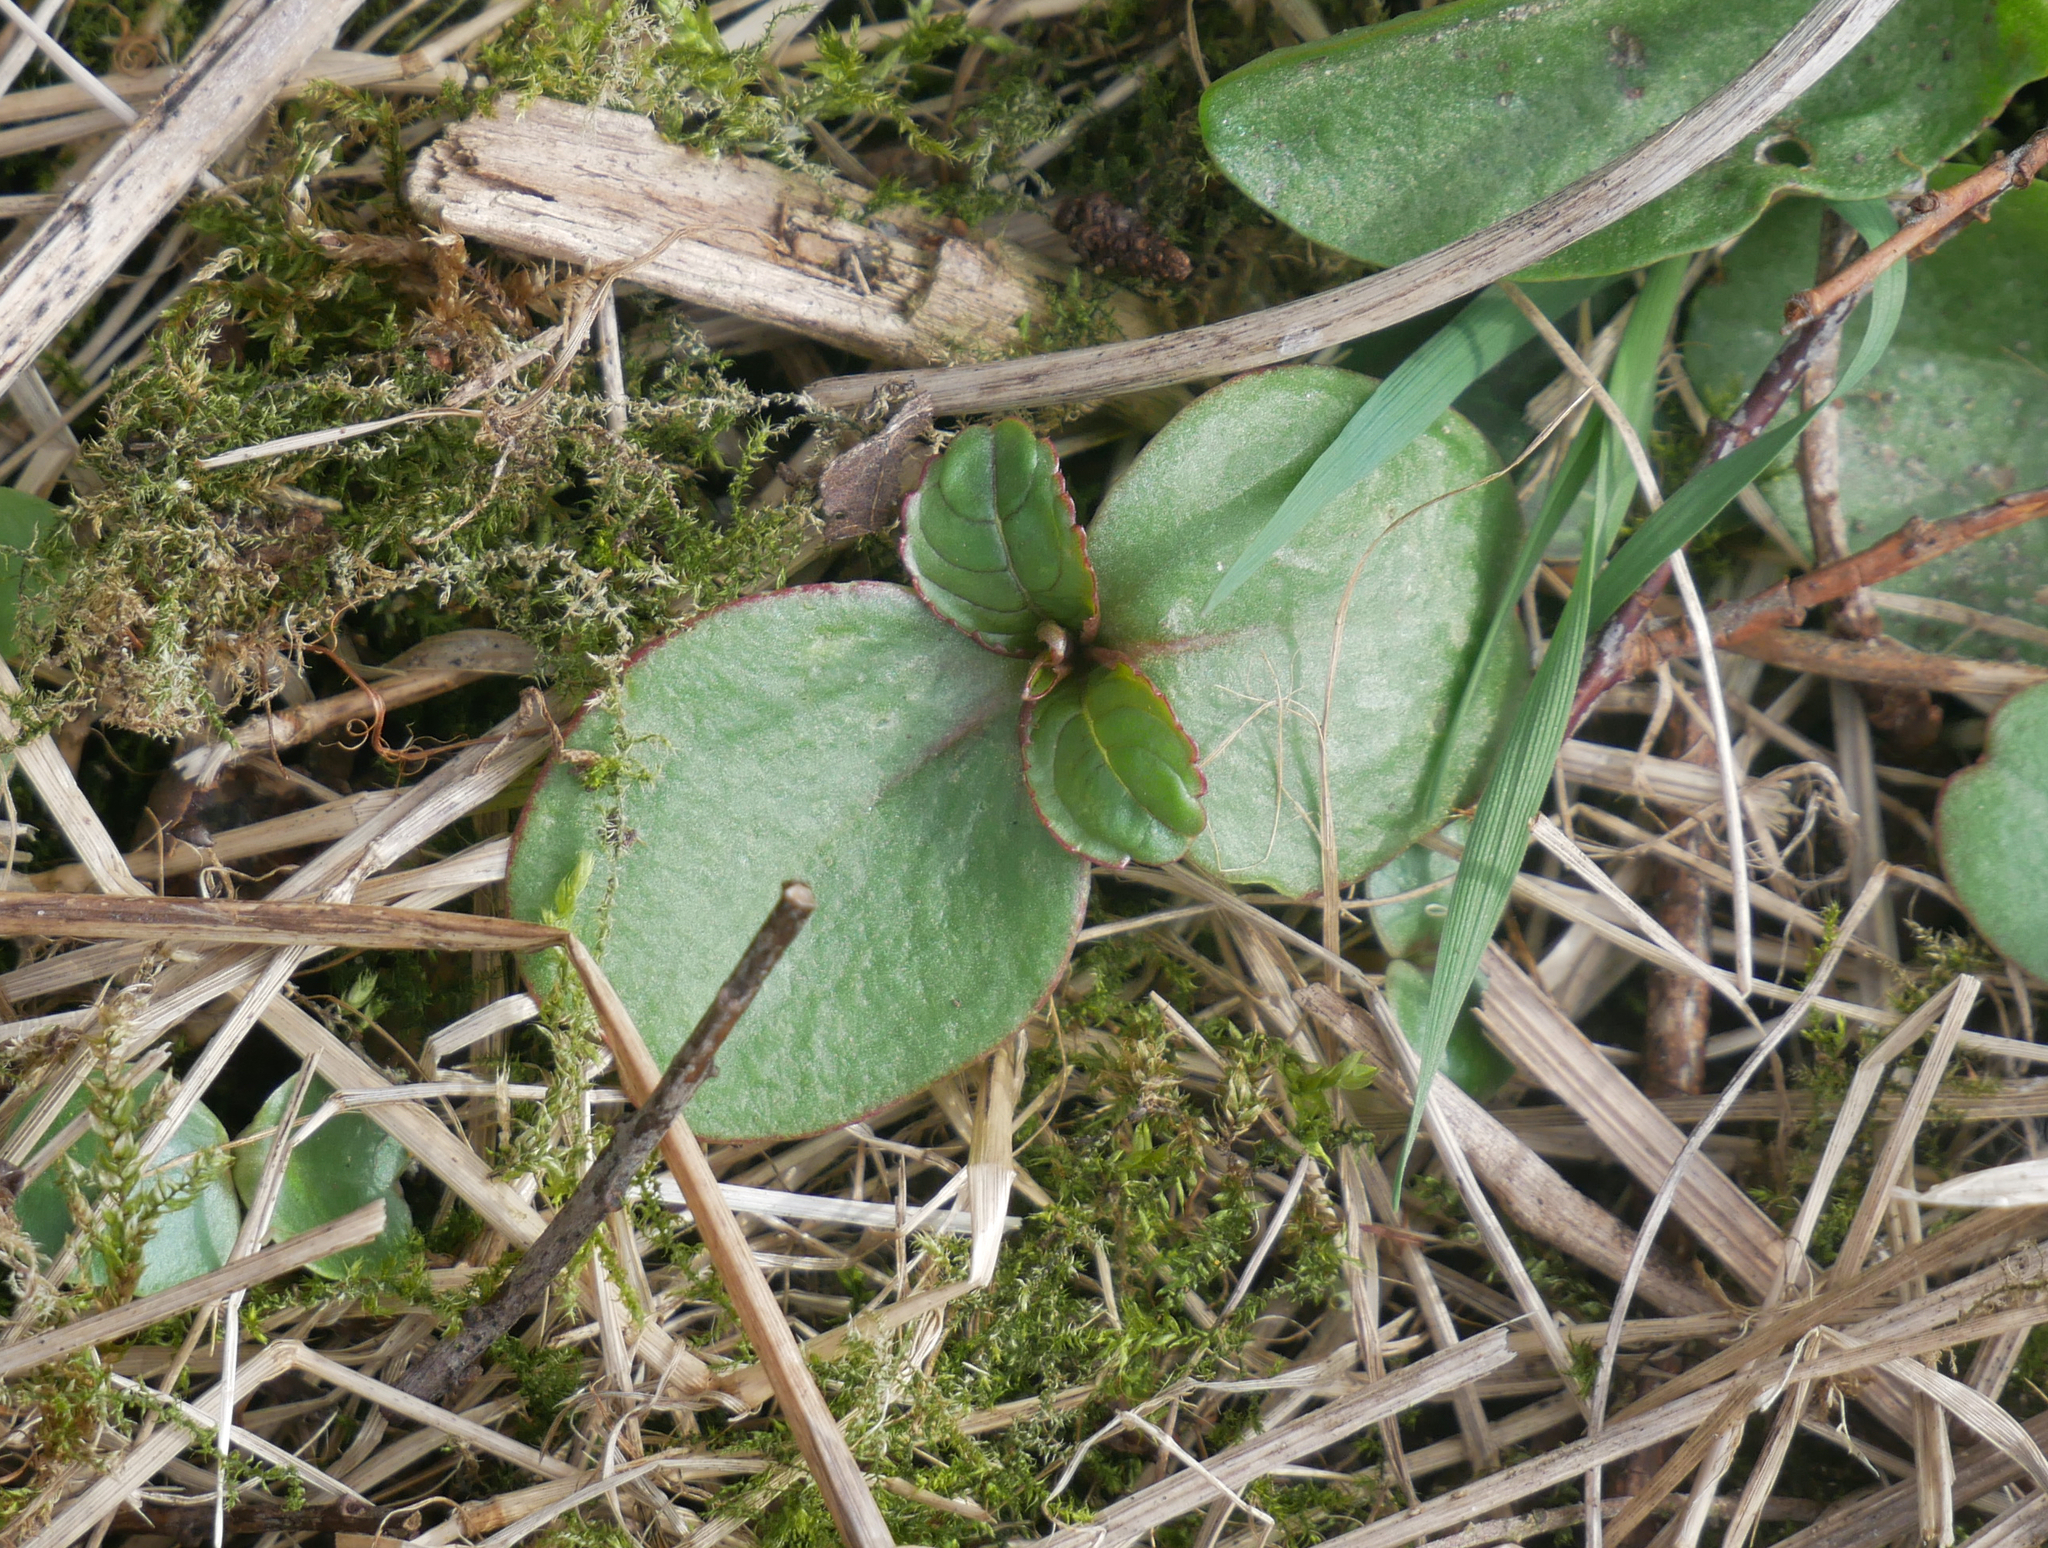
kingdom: Plantae
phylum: Tracheophyta
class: Magnoliopsida
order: Ericales
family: Balsaminaceae
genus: Impatiens
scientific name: Impatiens glandulifera
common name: Himalayan balsam
